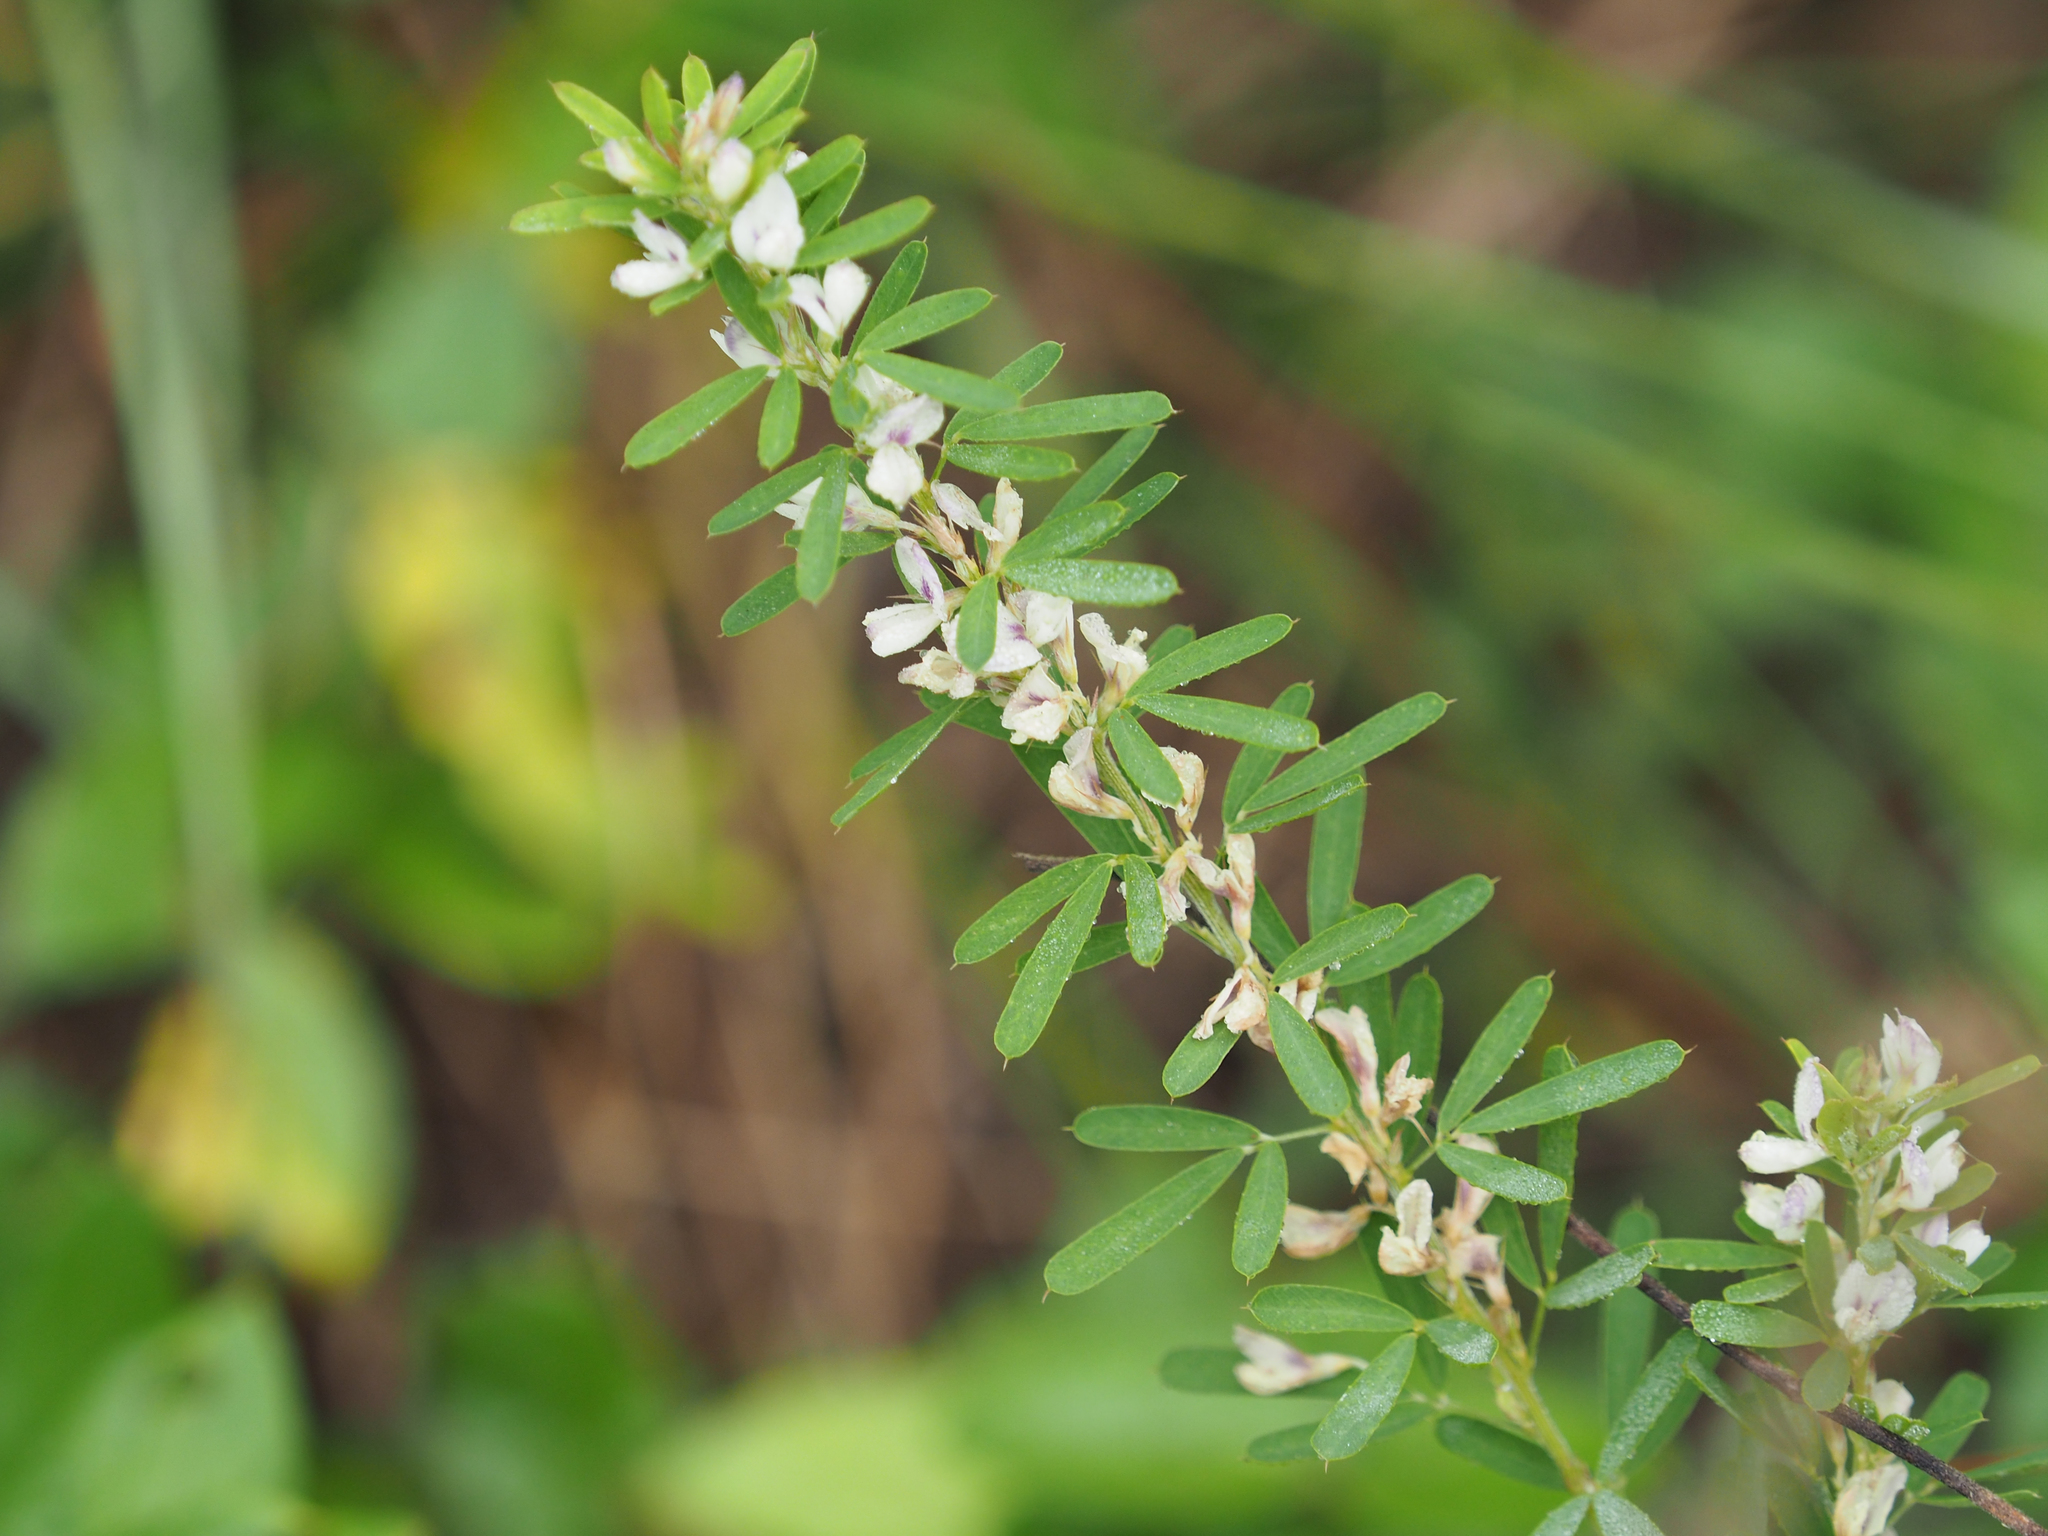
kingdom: Plantae
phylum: Tracheophyta
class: Magnoliopsida
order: Fabales
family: Fabaceae
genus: Lespedeza
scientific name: Lespedeza cuneata
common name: Chinese bush-clover
